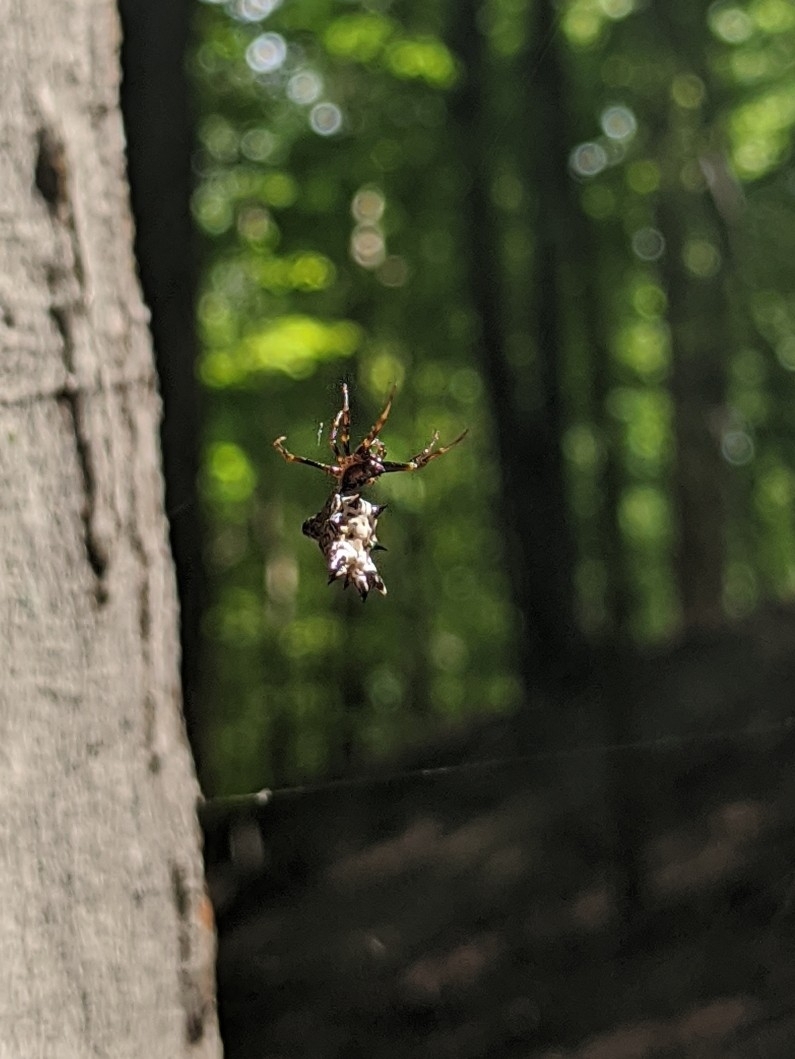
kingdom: Animalia
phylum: Arthropoda
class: Arachnida
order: Araneae
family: Araneidae
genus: Micrathena
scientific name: Micrathena gracilis
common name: Orb weavers
